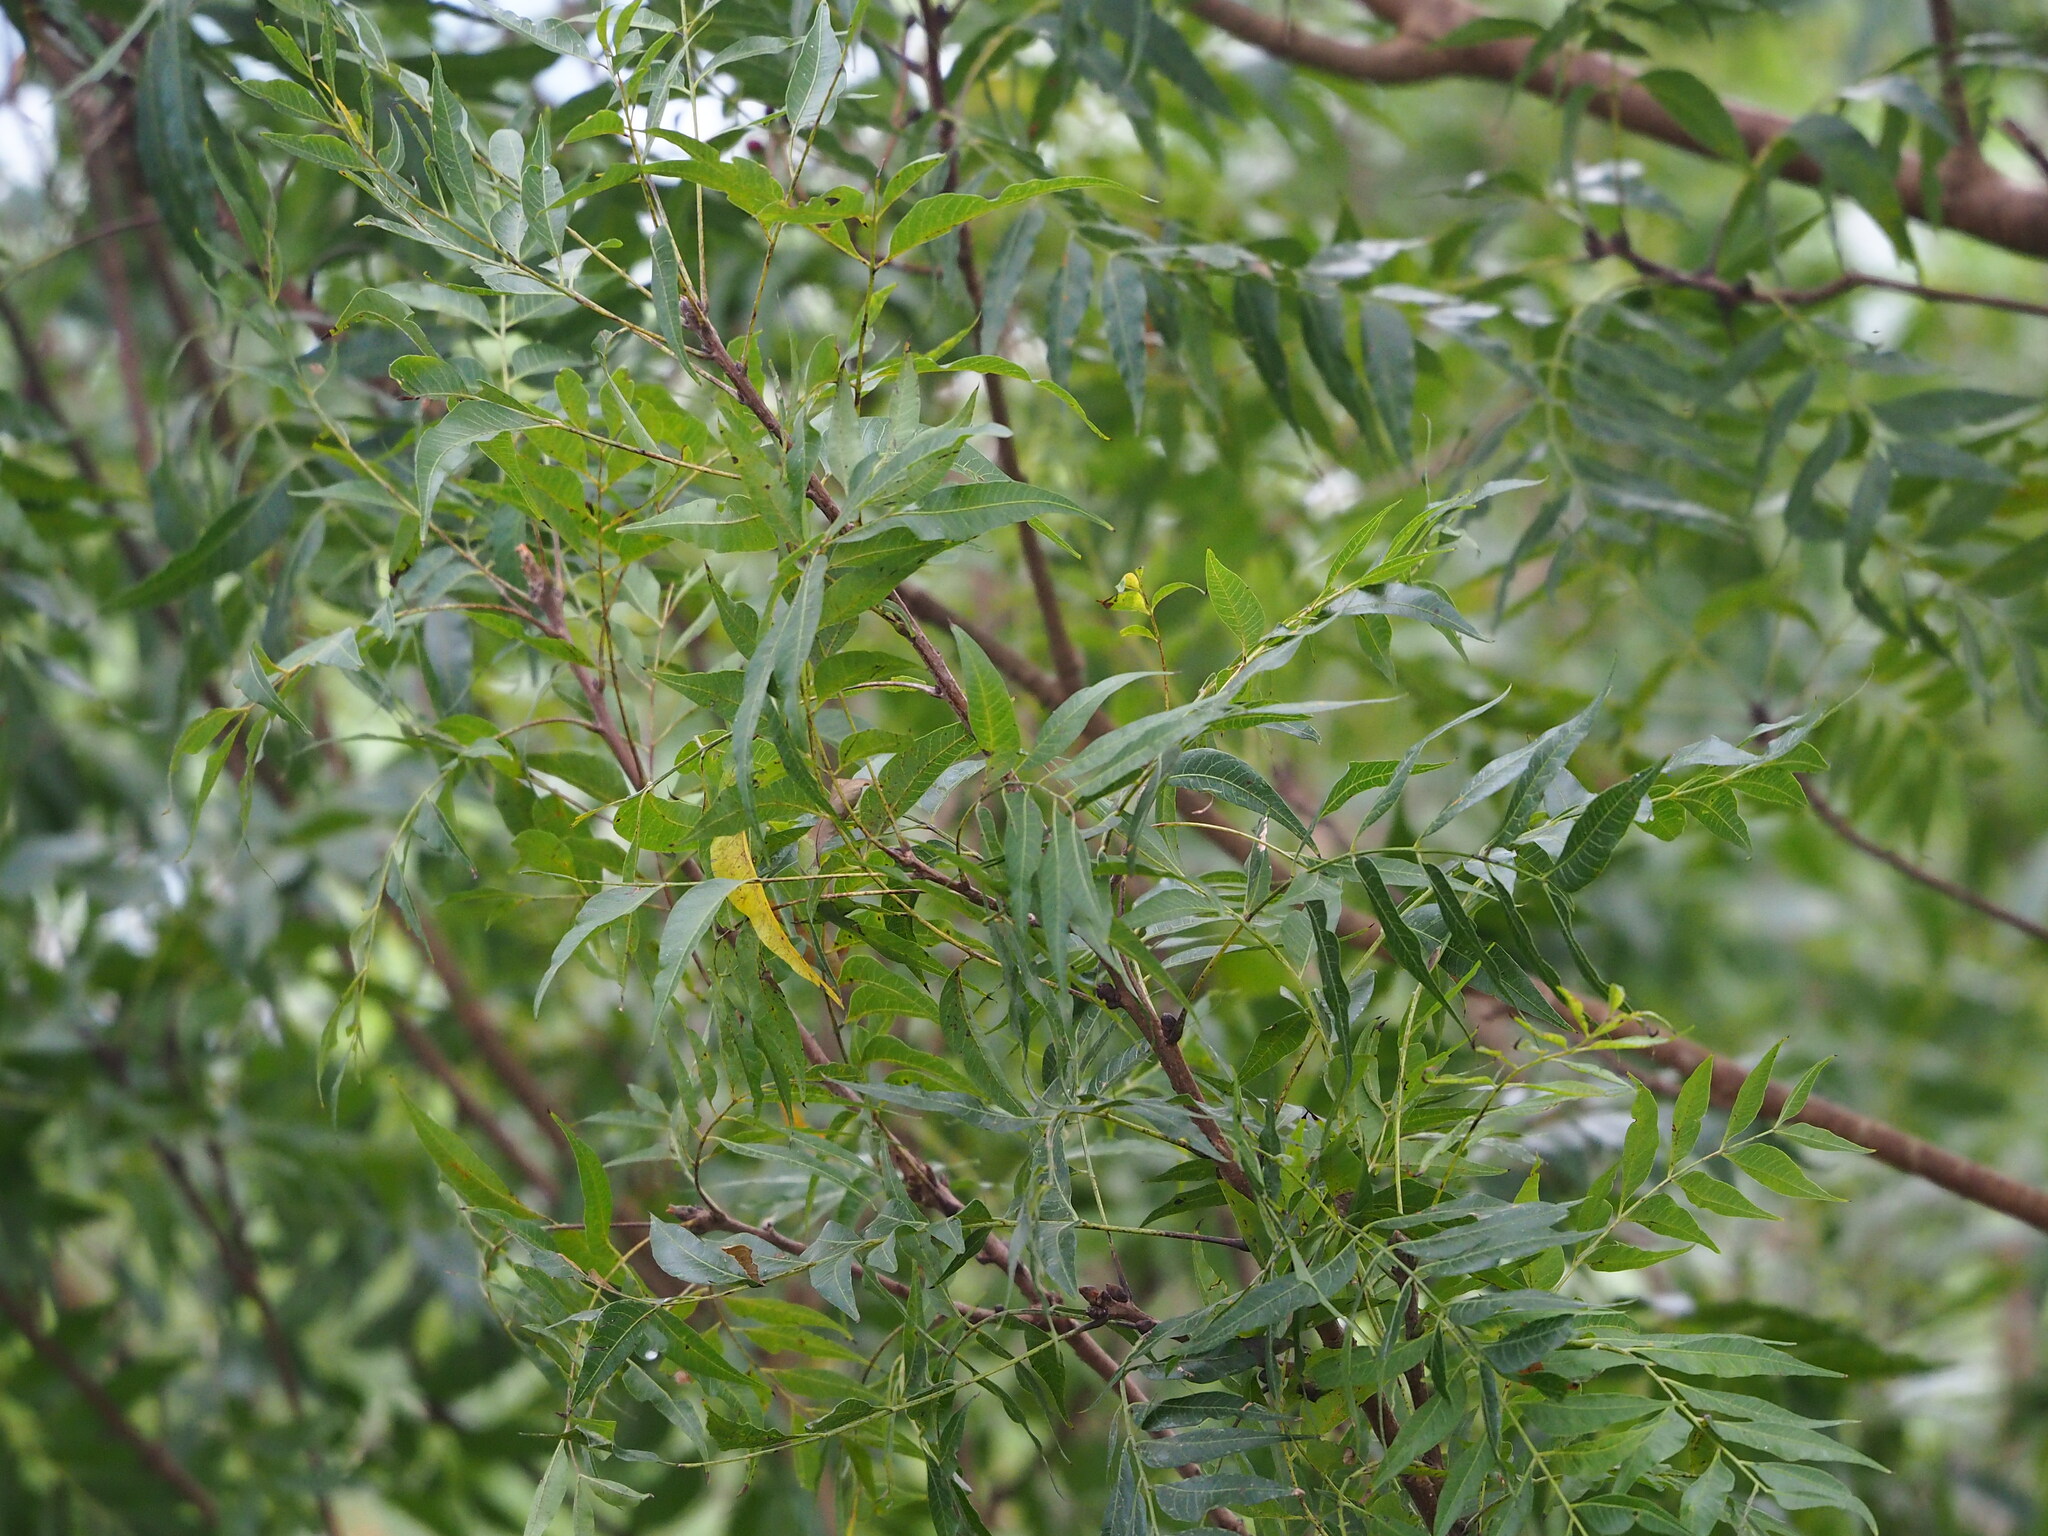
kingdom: Plantae
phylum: Tracheophyta
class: Magnoliopsida
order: Sapindales
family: Anacardiaceae
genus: Pistacia
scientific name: Pistacia chinensis
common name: Chinese pistache
